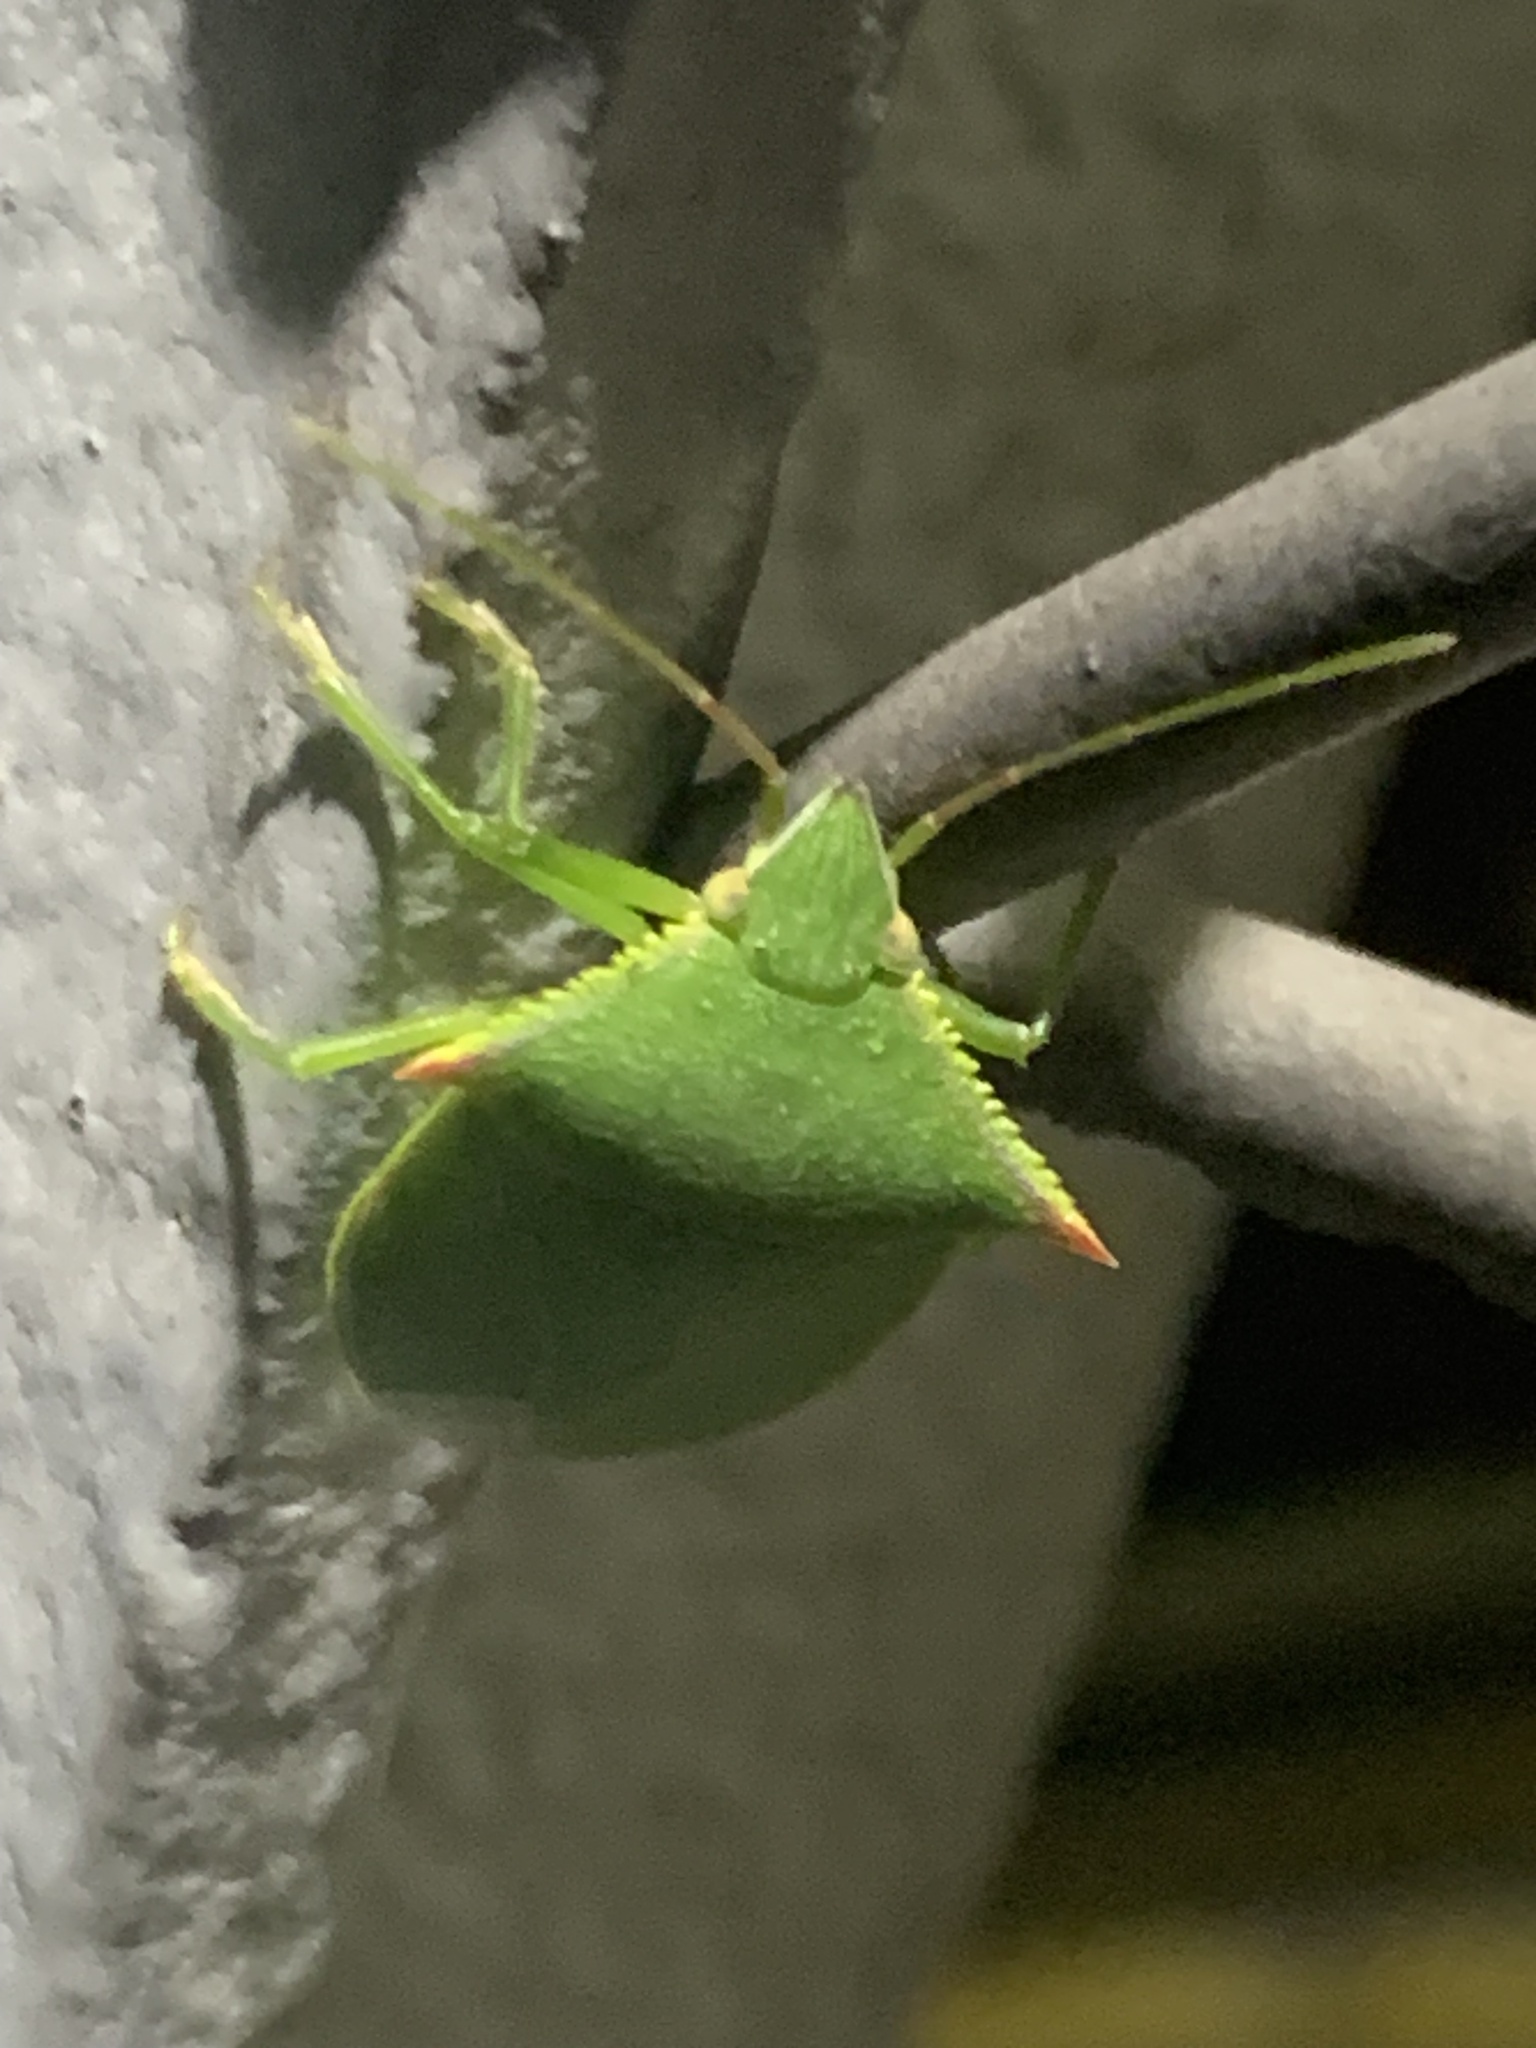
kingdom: Animalia
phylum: Arthropoda
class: Insecta
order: Hemiptera
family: Pentatomidae
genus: Loxa
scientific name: Loxa deducta
